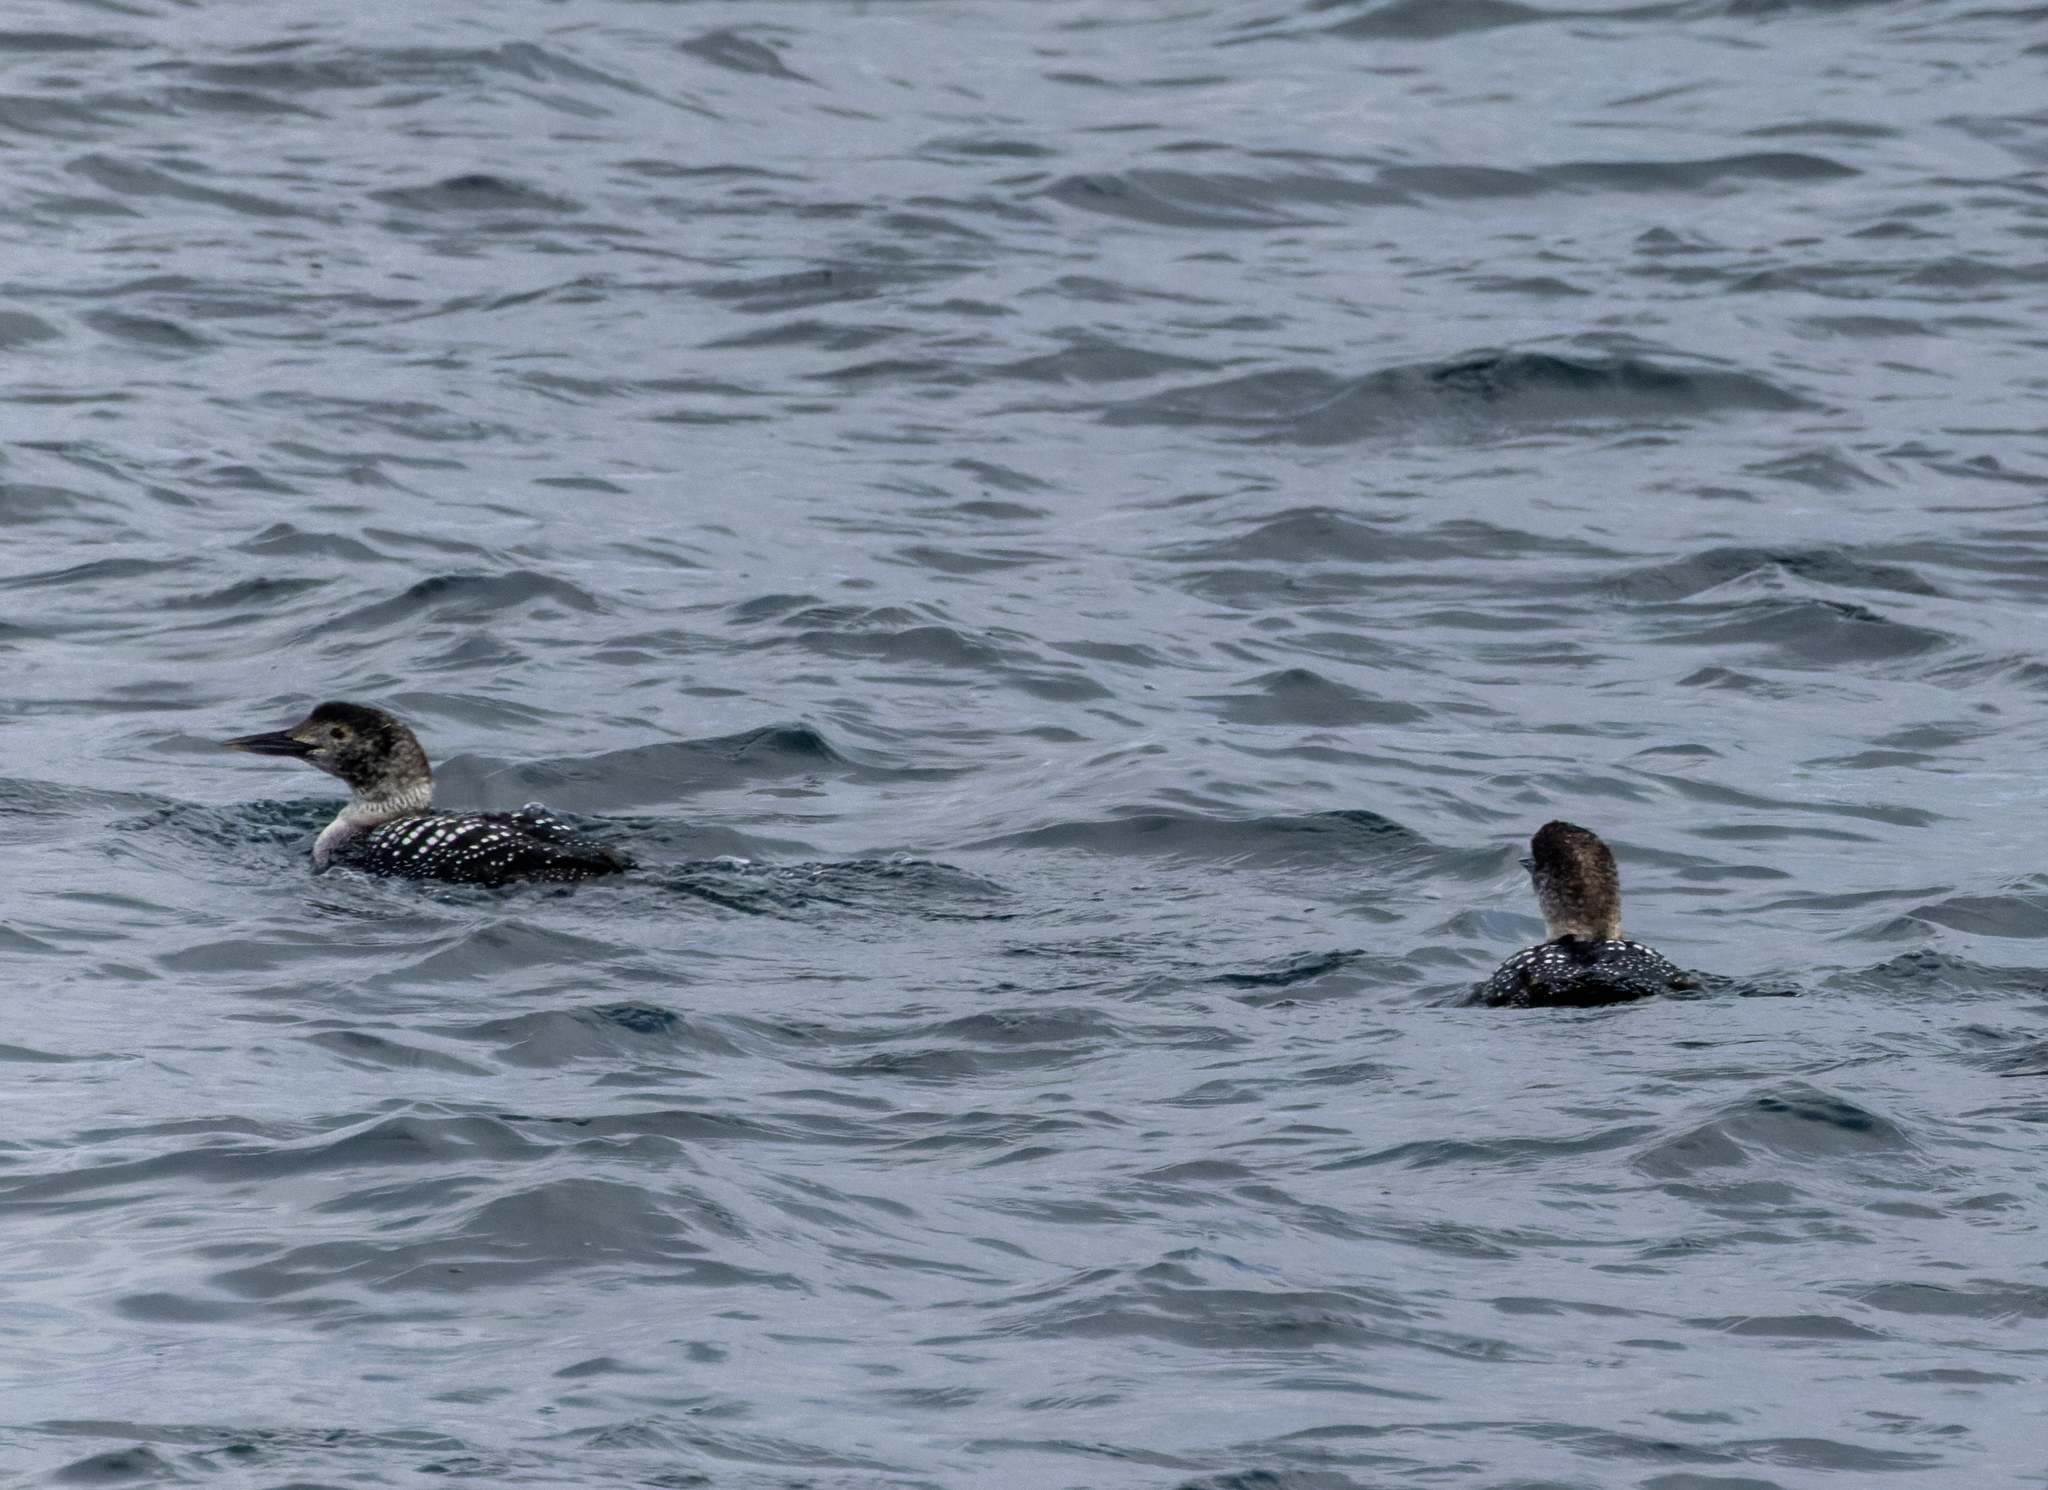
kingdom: Animalia
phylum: Chordata
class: Aves
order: Gaviiformes
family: Gaviidae
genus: Gavia
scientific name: Gavia immer
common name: Common loon
